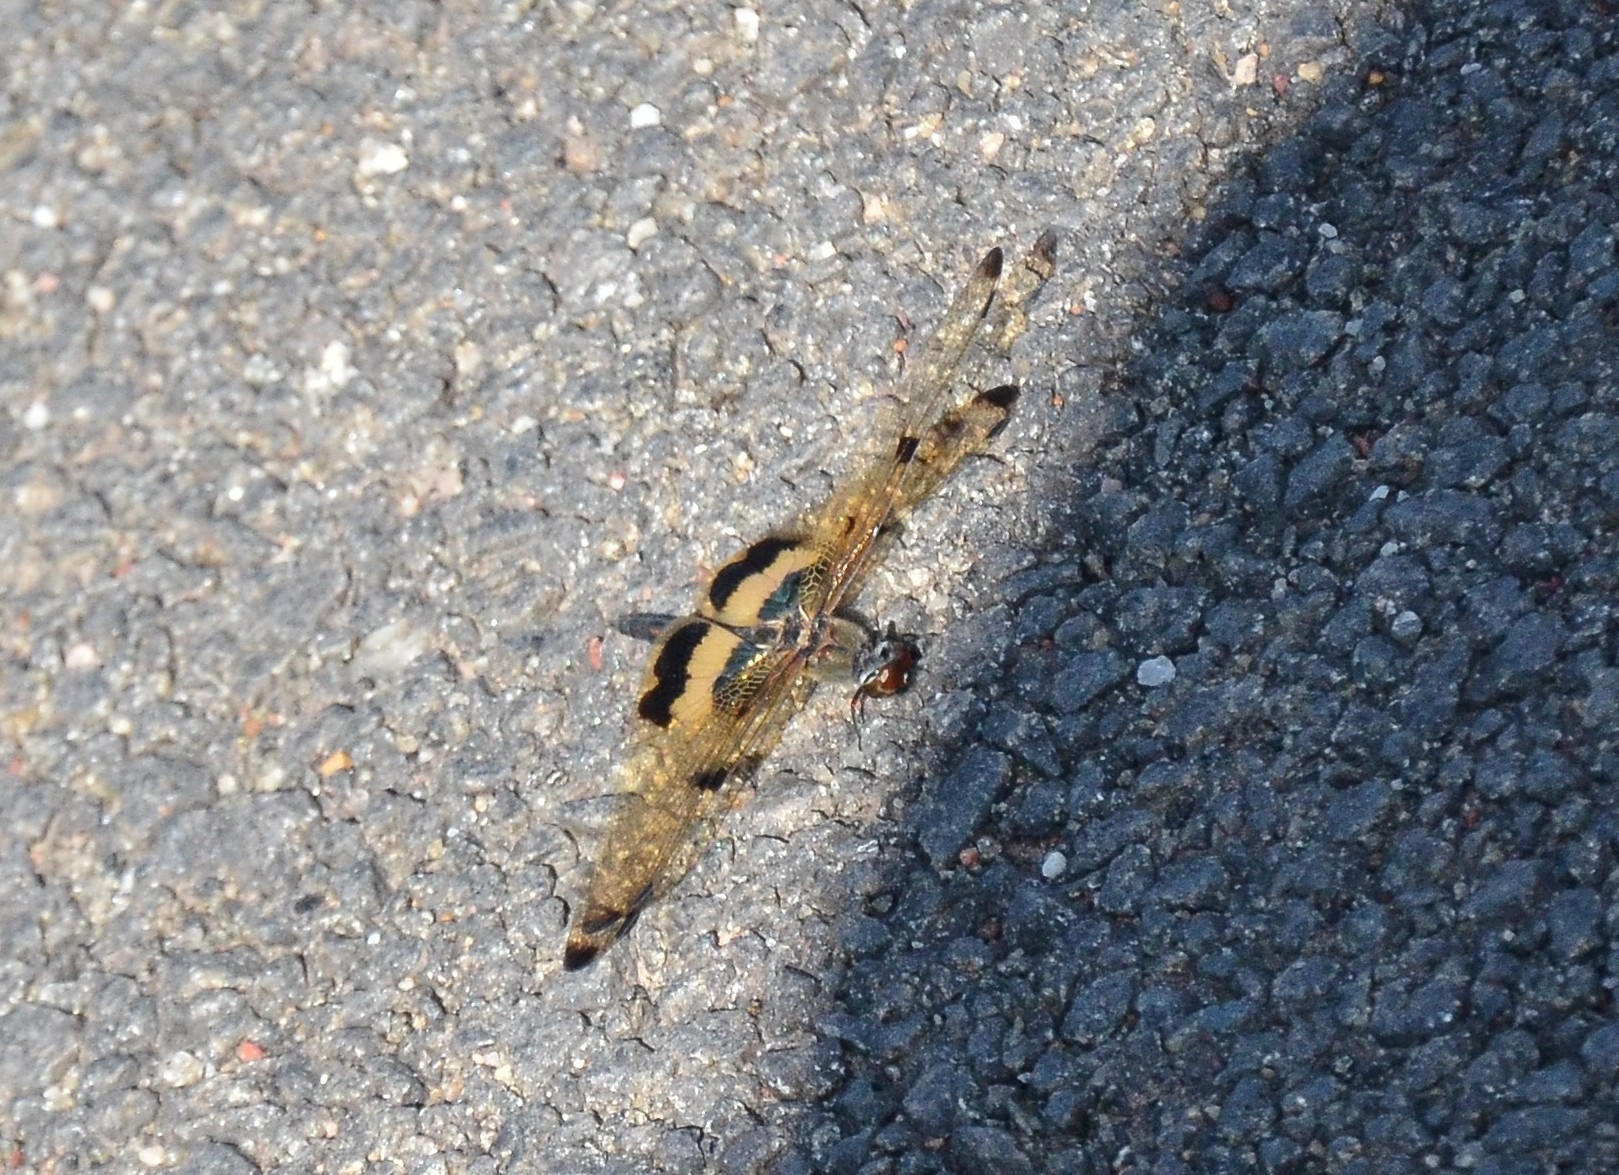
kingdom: Animalia
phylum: Arthropoda
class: Insecta
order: Odonata
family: Libellulidae
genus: Rhyothemis
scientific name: Rhyothemis variegata
